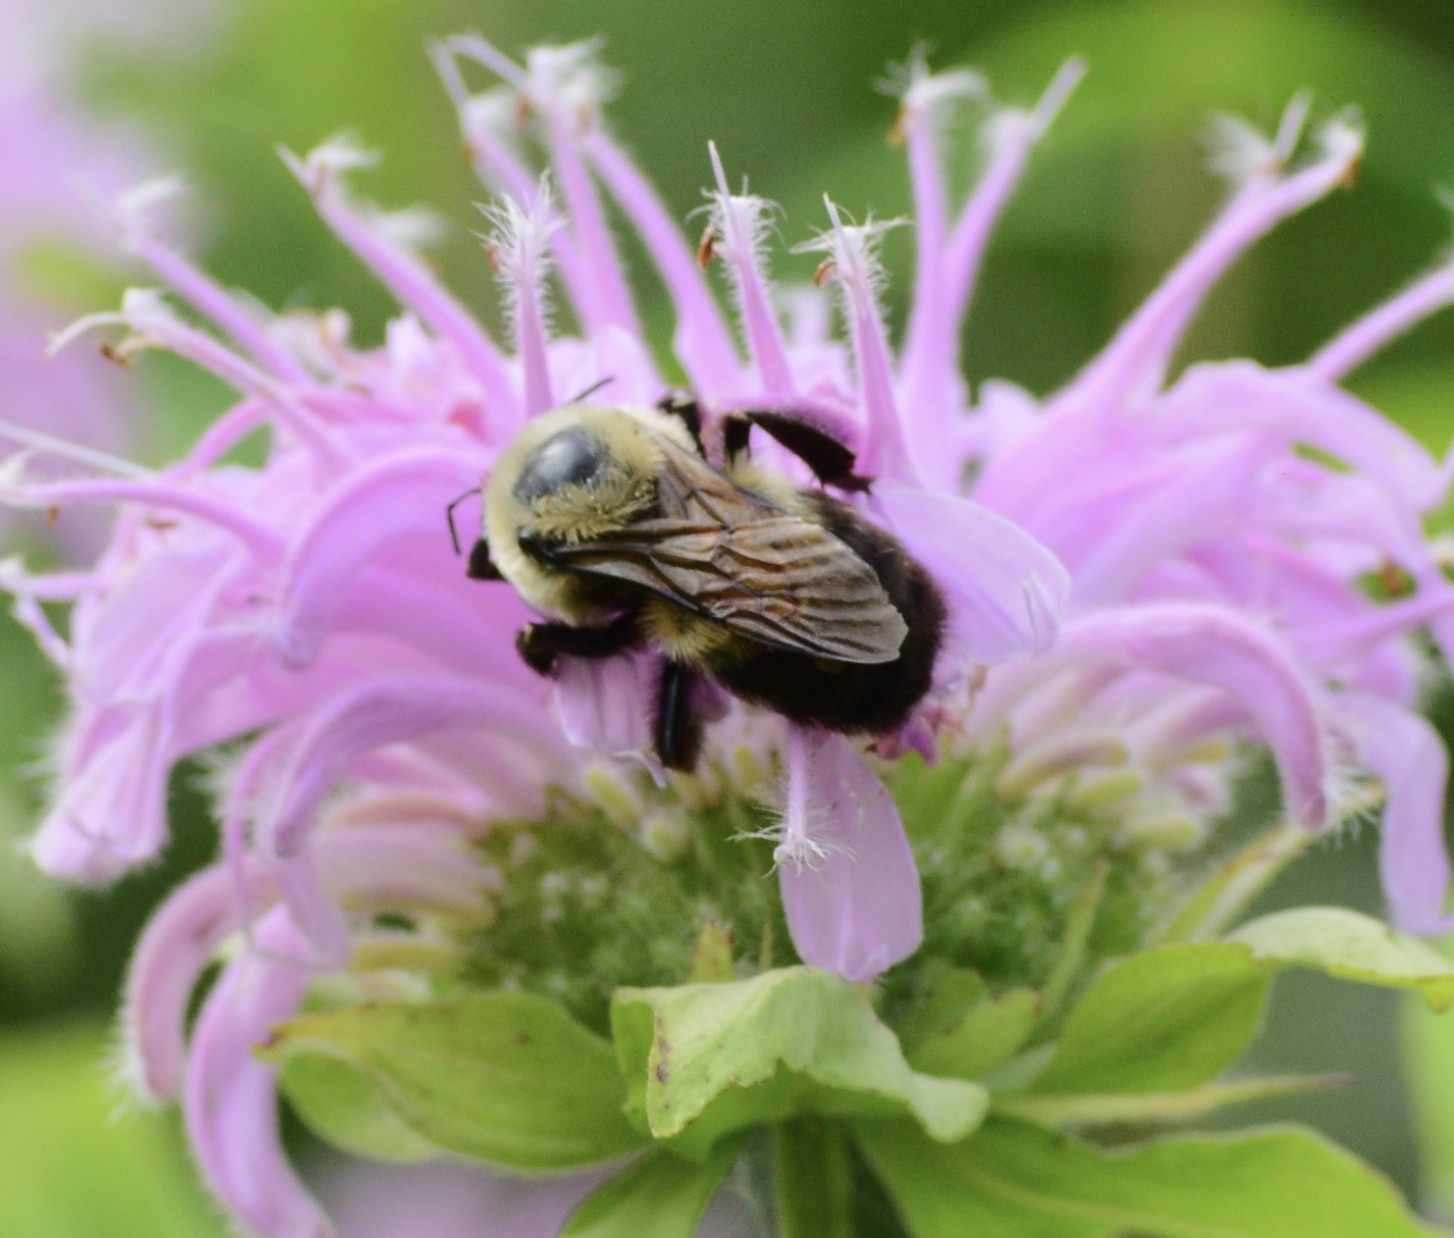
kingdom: Animalia
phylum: Arthropoda
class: Insecta
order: Hymenoptera
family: Apidae
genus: Bombus
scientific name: Bombus griseocollis
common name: Brown-belted bumble bee
